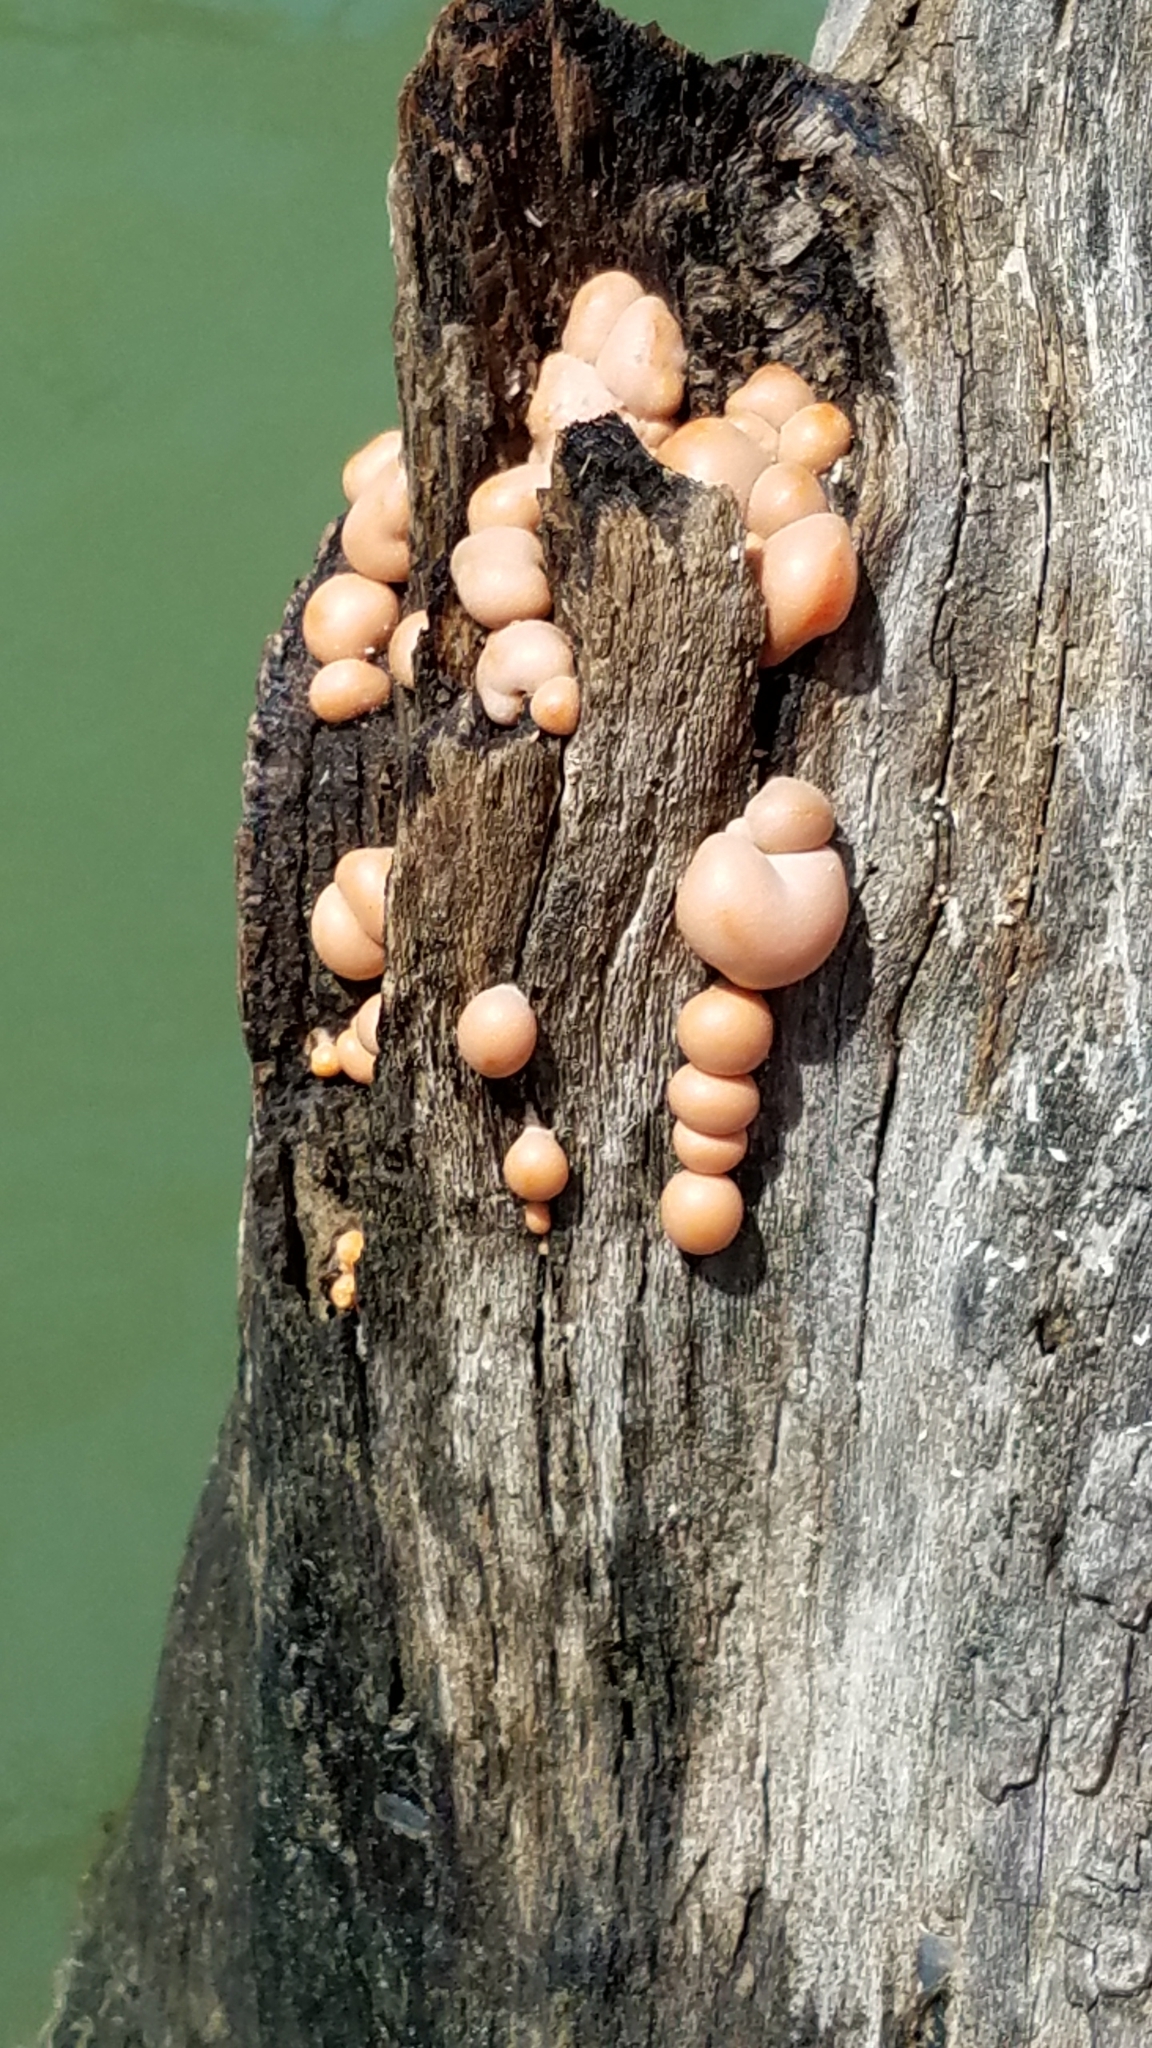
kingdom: Protozoa
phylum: Mycetozoa
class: Myxomycetes
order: Cribrariales
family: Tubiferaceae
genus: Lycogala
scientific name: Lycogala epidendrum
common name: Wolf's milk
